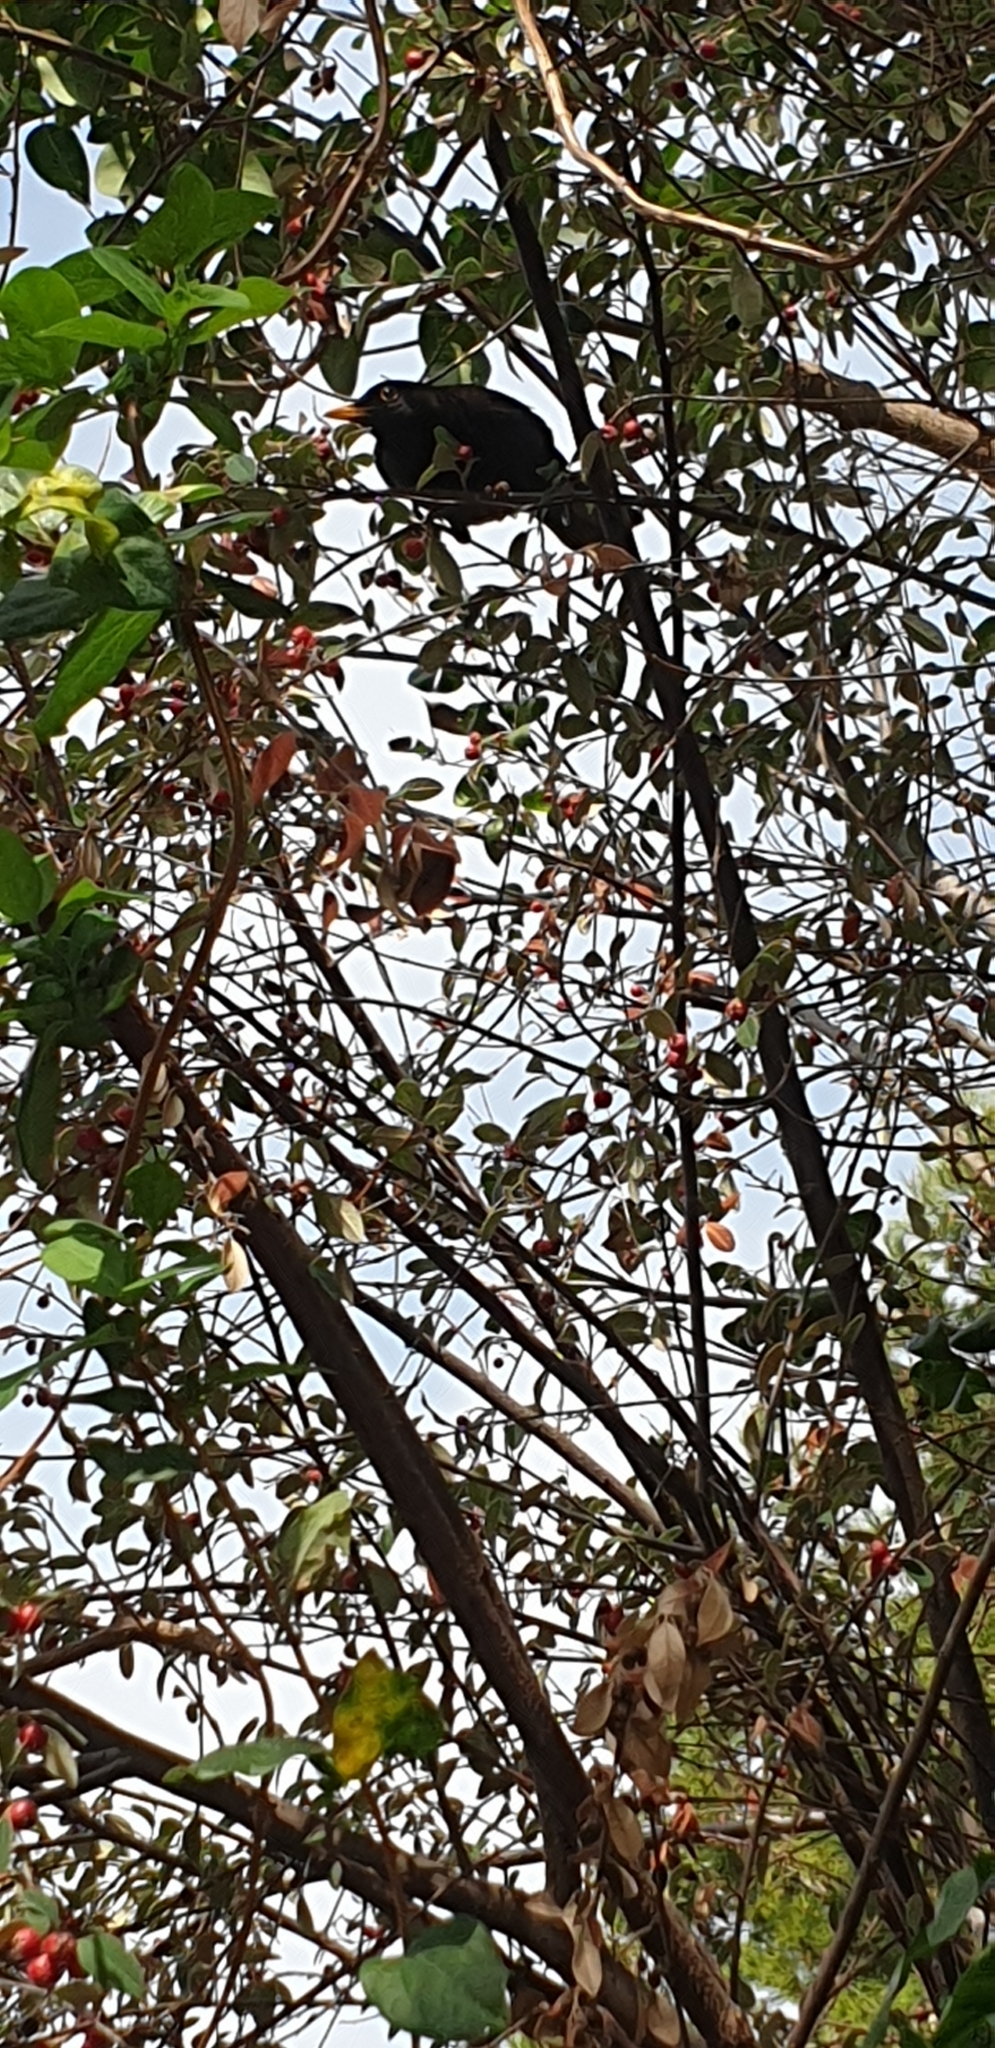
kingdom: Animalia
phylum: Chordata
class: Aves
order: Passeriformes
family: Turdidae
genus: Turdus
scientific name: Turdus merula
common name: Common blackbird
